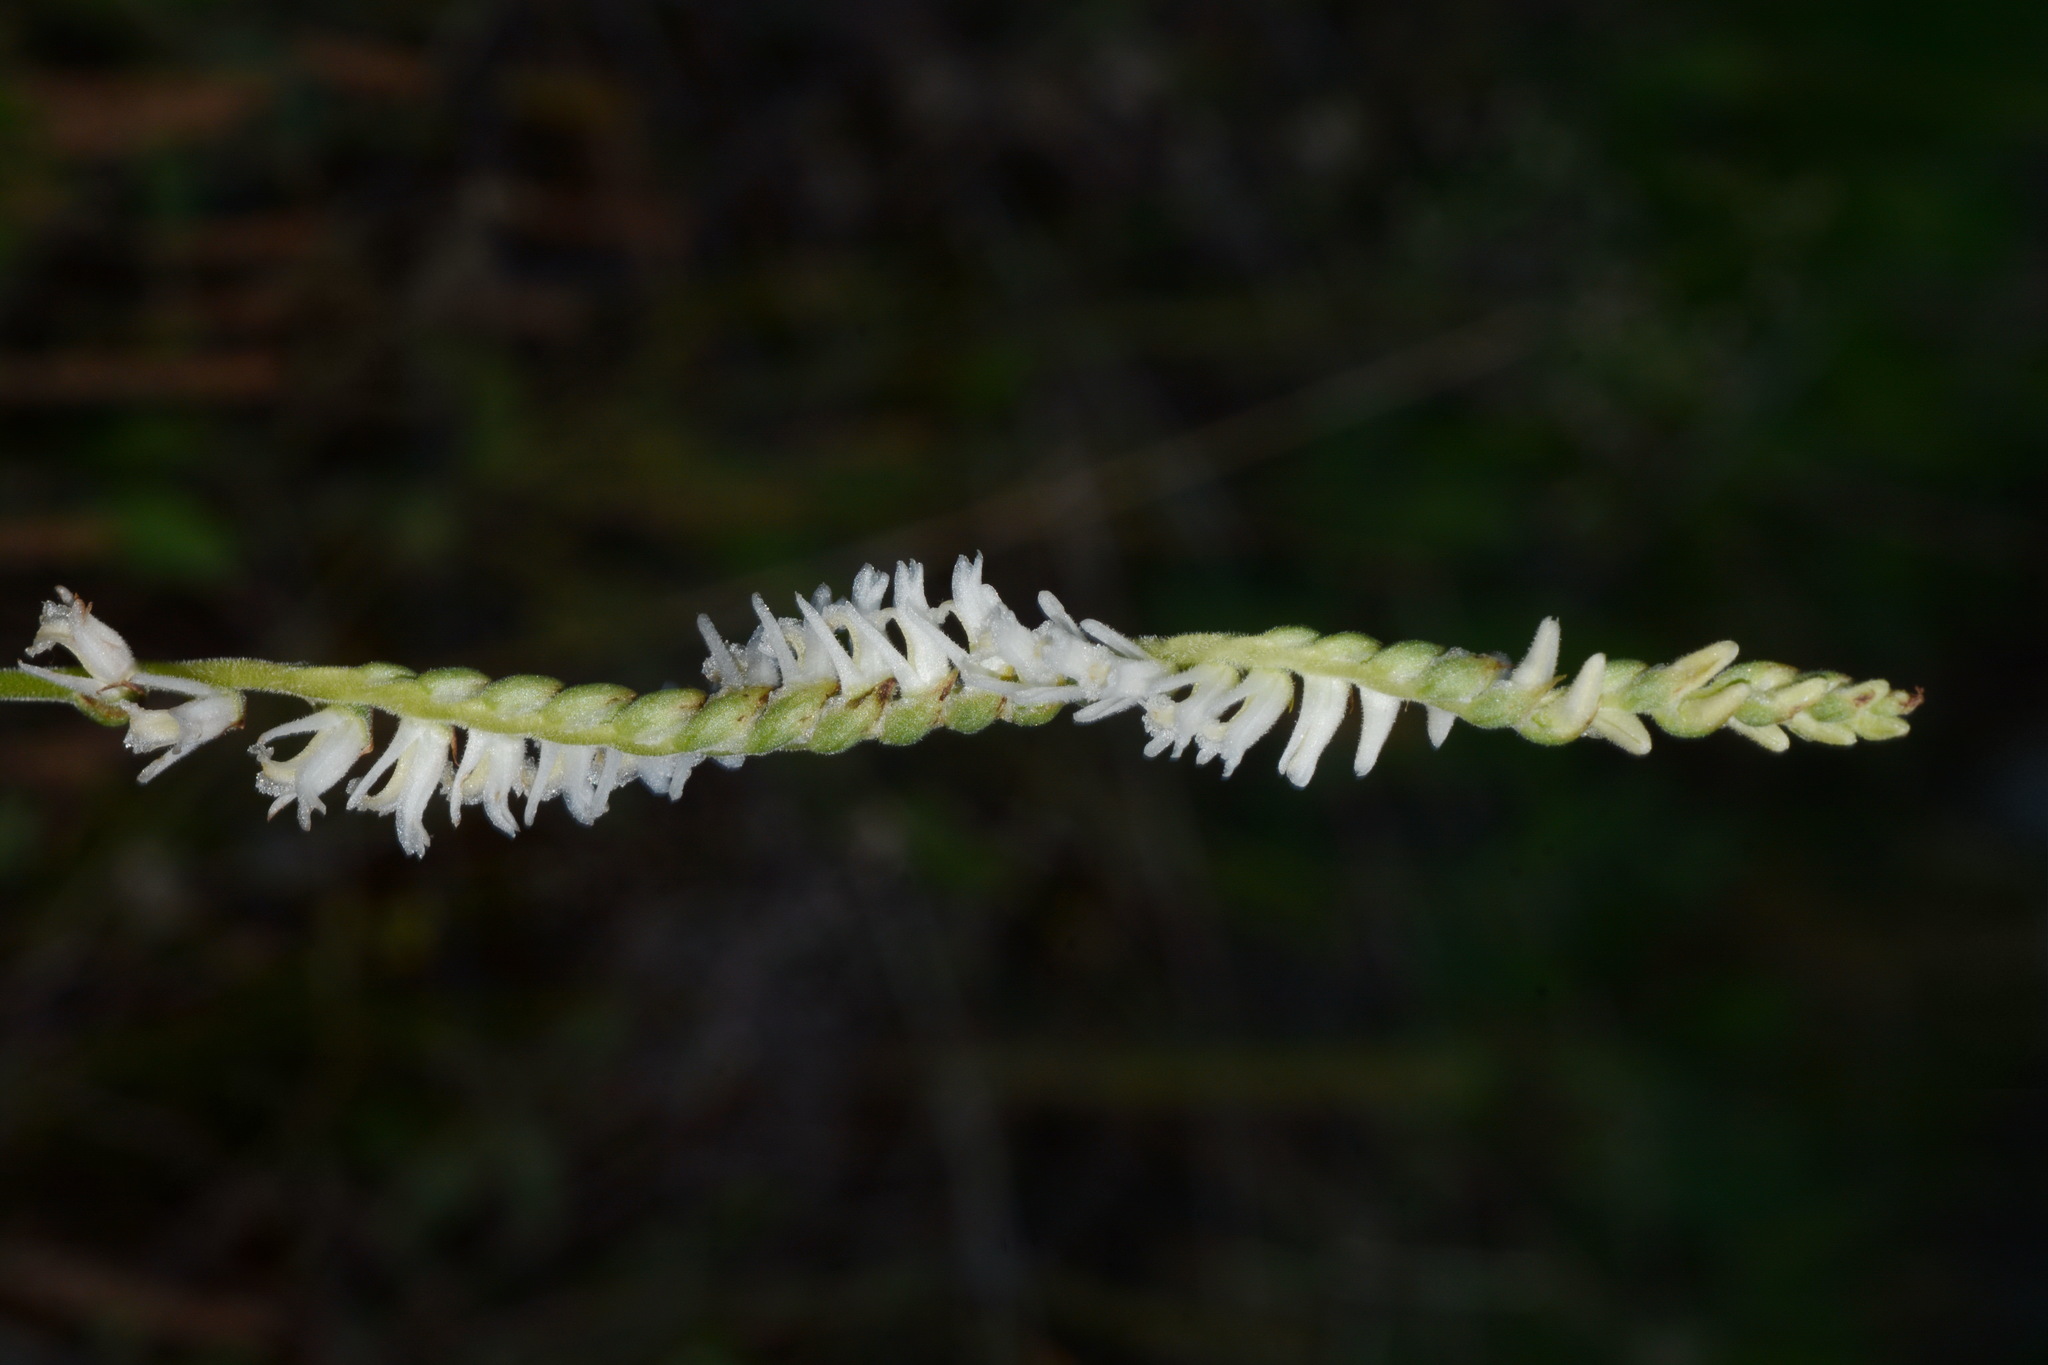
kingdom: Plantae
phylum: Tracheophyta
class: Liliopsida
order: Asparagales
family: Orchidaceae
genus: Spiranthes
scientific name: Spiranthes vernalis
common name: Spring ladies'-tresses
